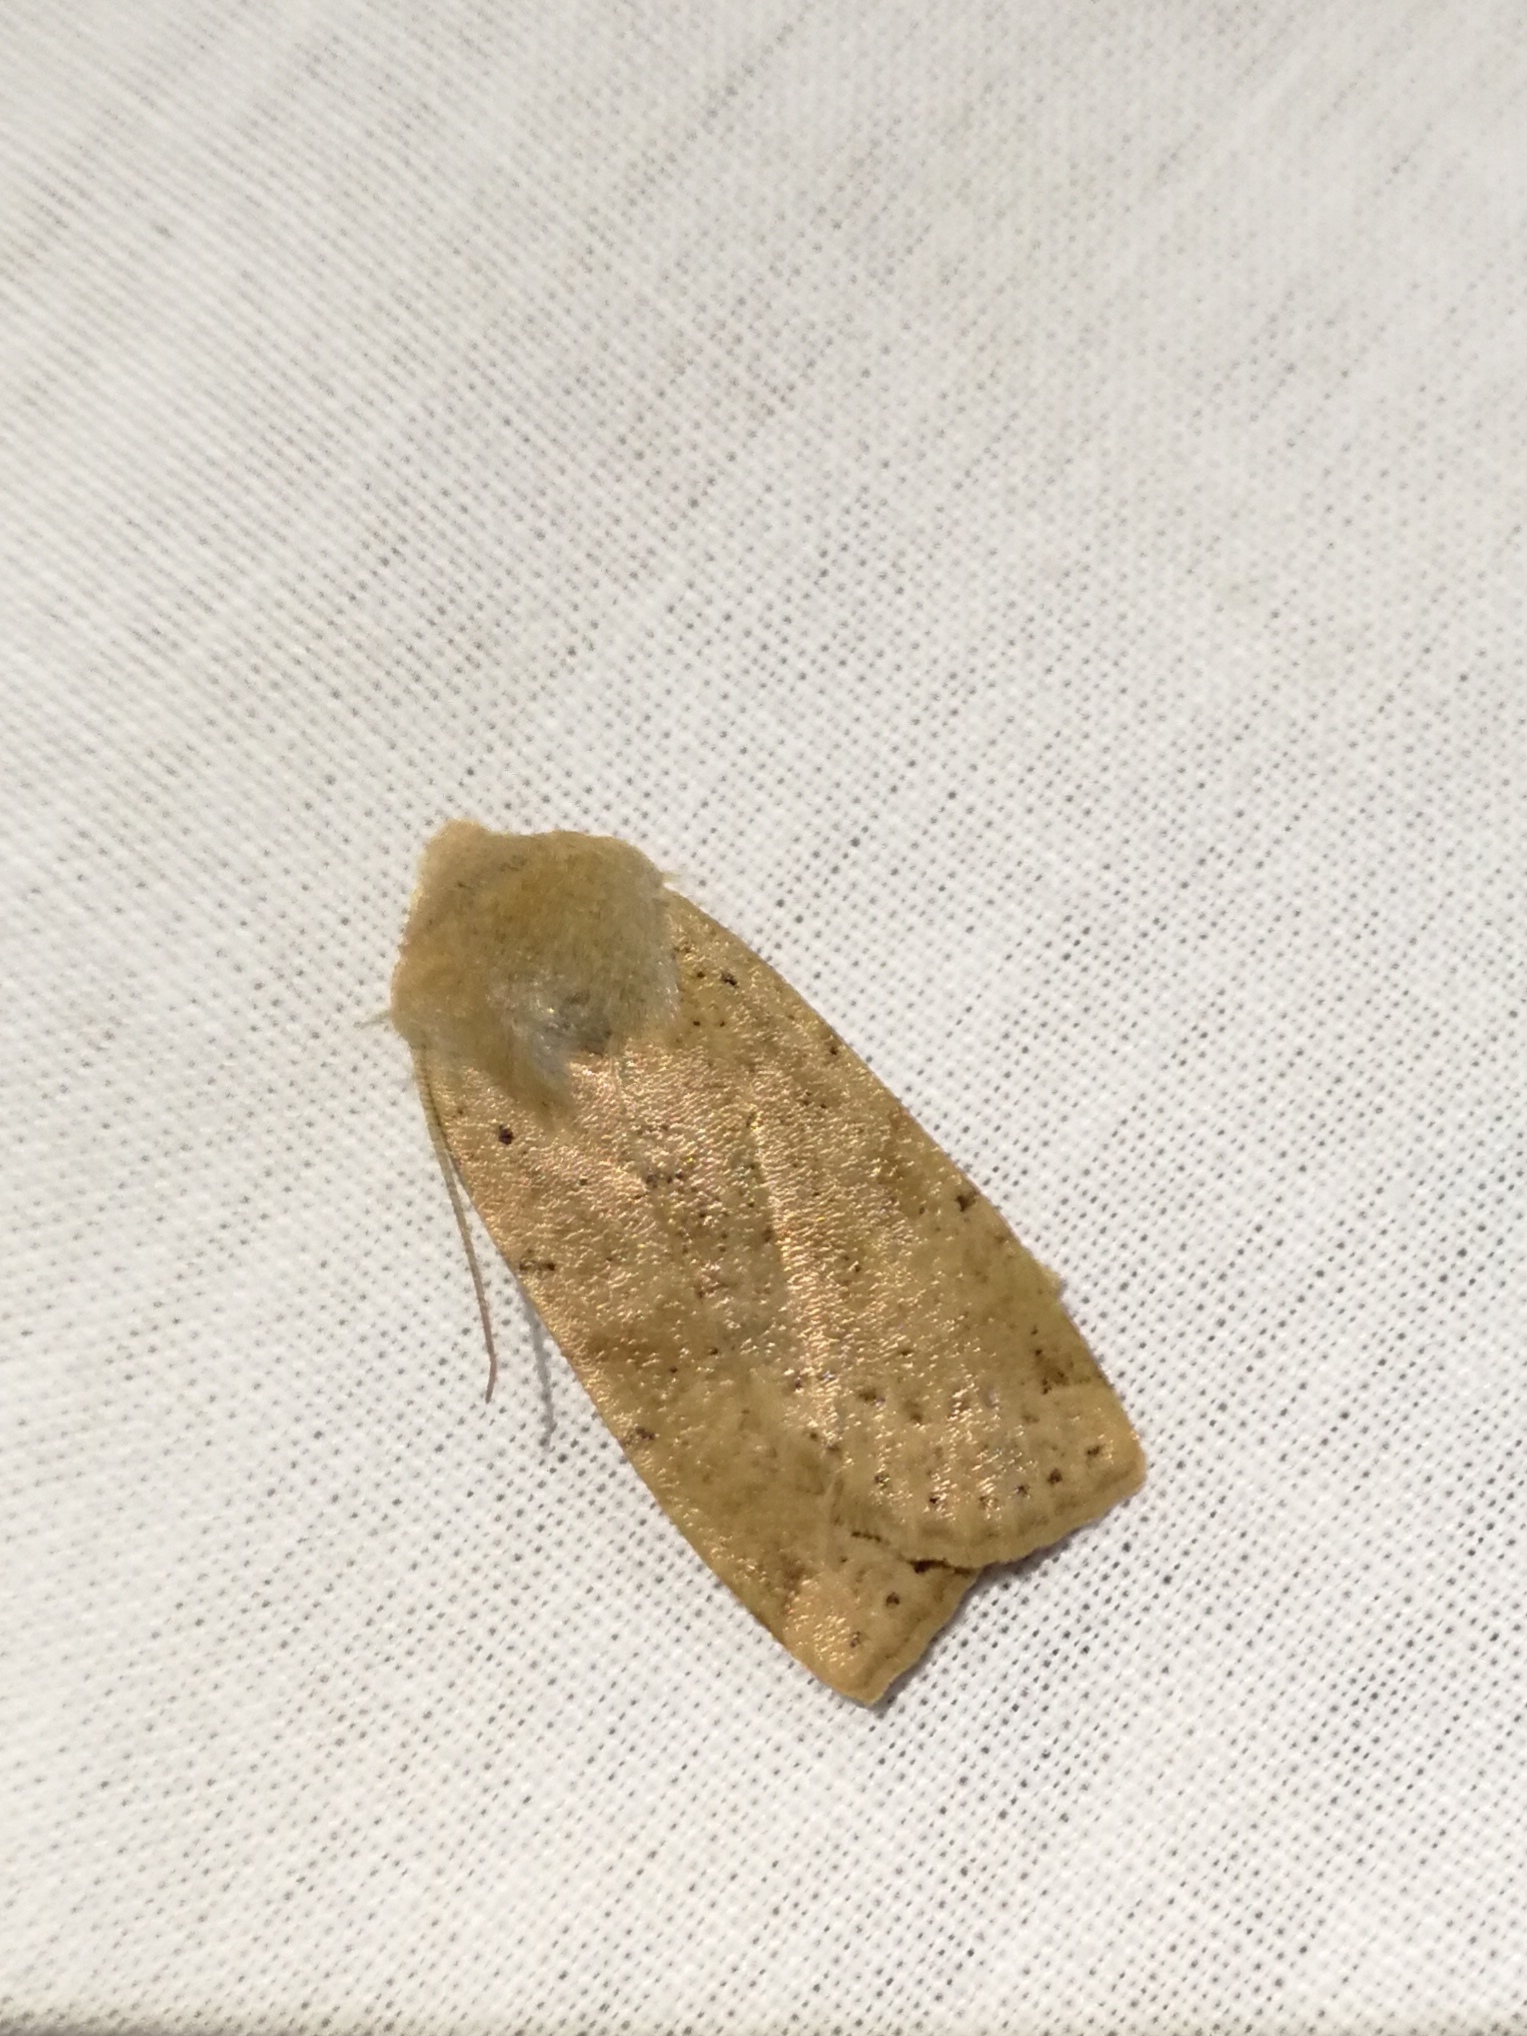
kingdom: Animalia
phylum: Arthropoda
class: Insecta
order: Lepidoptera
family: Noctuidae
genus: Conistra
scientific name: Conistra daubei
